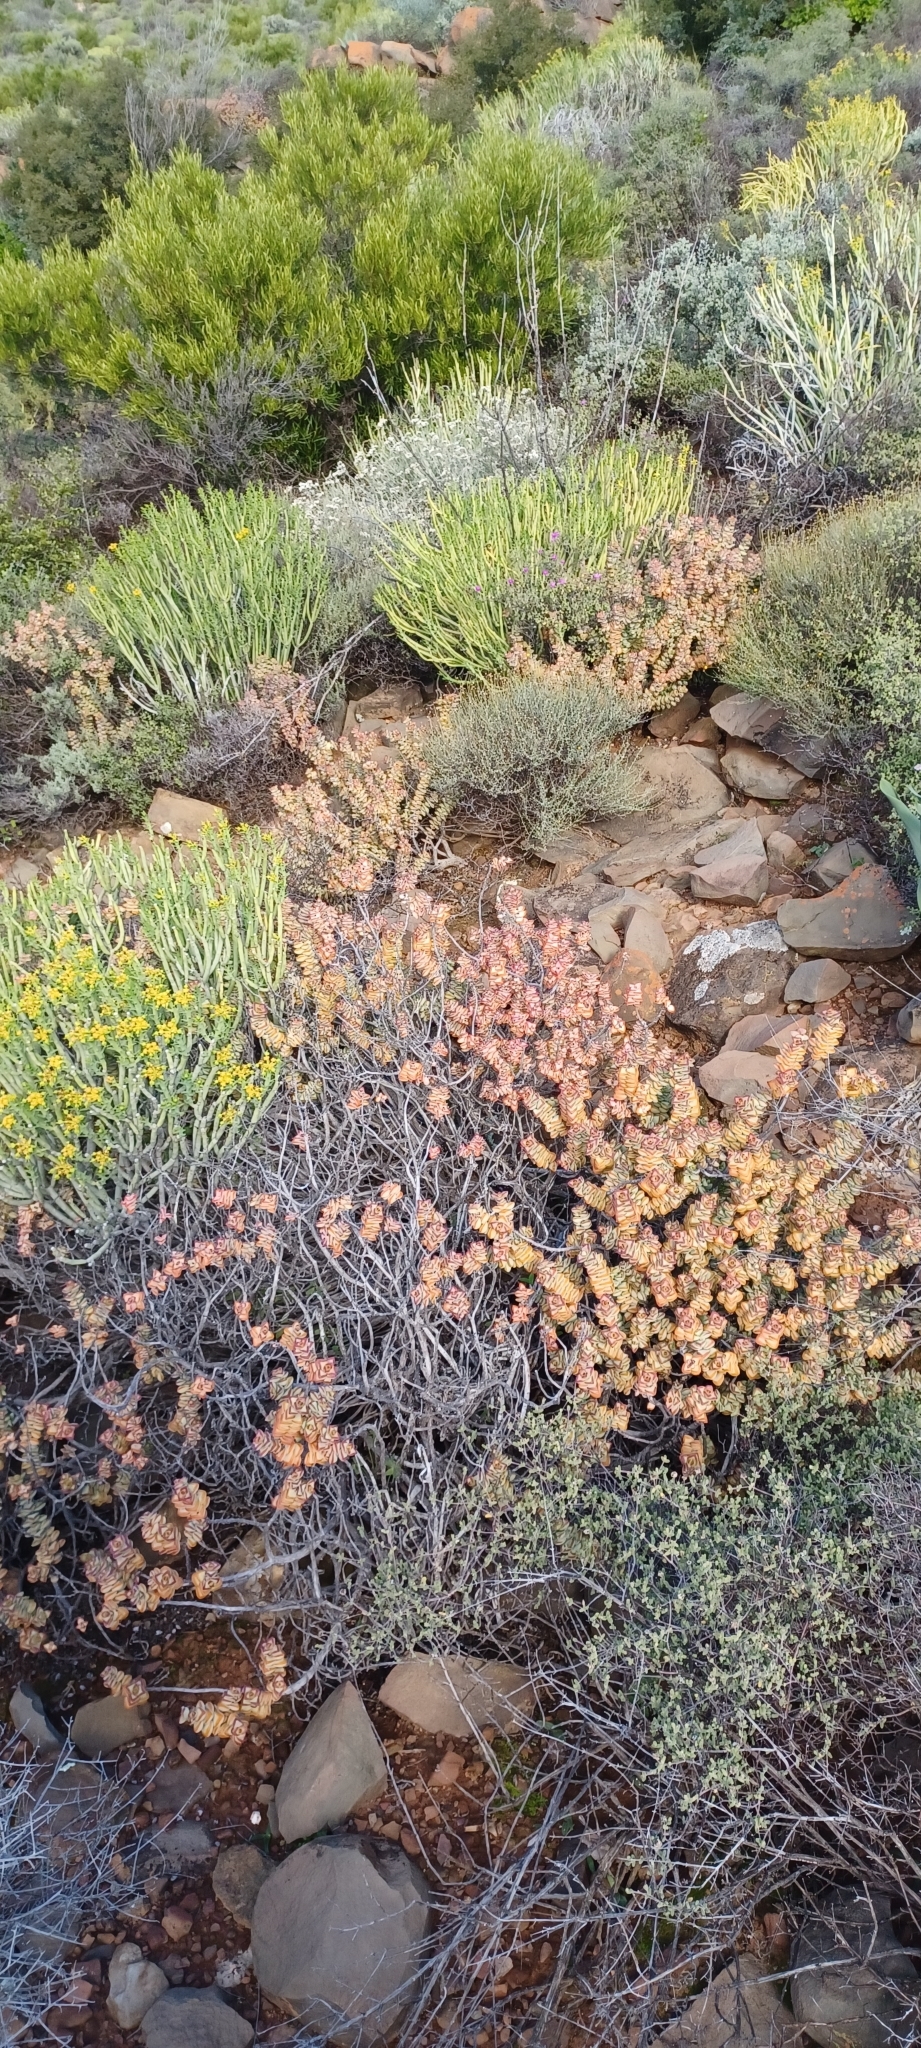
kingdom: Plantae
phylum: Tracheophyta
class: Magnoliopsida
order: Saxifragales
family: Crassulaceae
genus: Crassula
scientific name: Crassula rupestris
